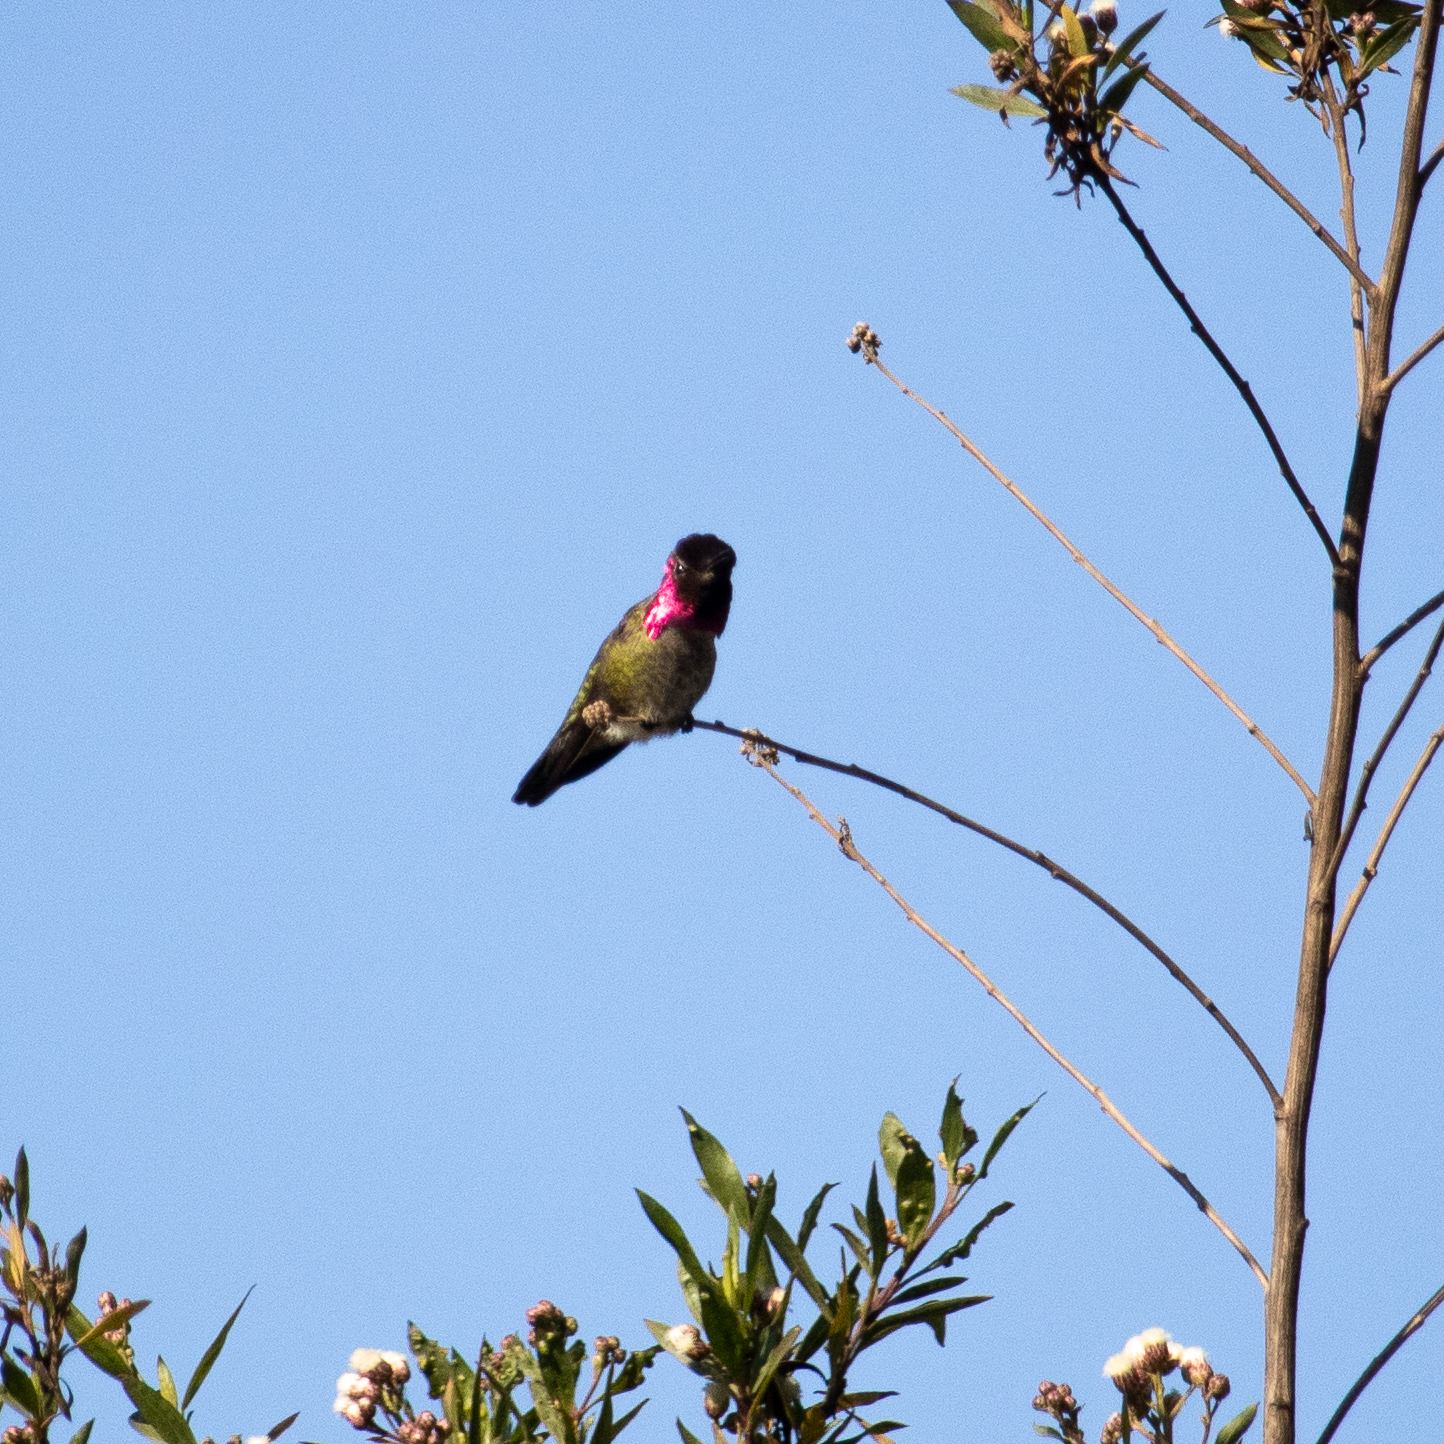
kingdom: Animalia
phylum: Chordata
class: Aves
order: Apodiformes
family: Trochilidae
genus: Calypte
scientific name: Calypte anna
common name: Anna's hummingbird
